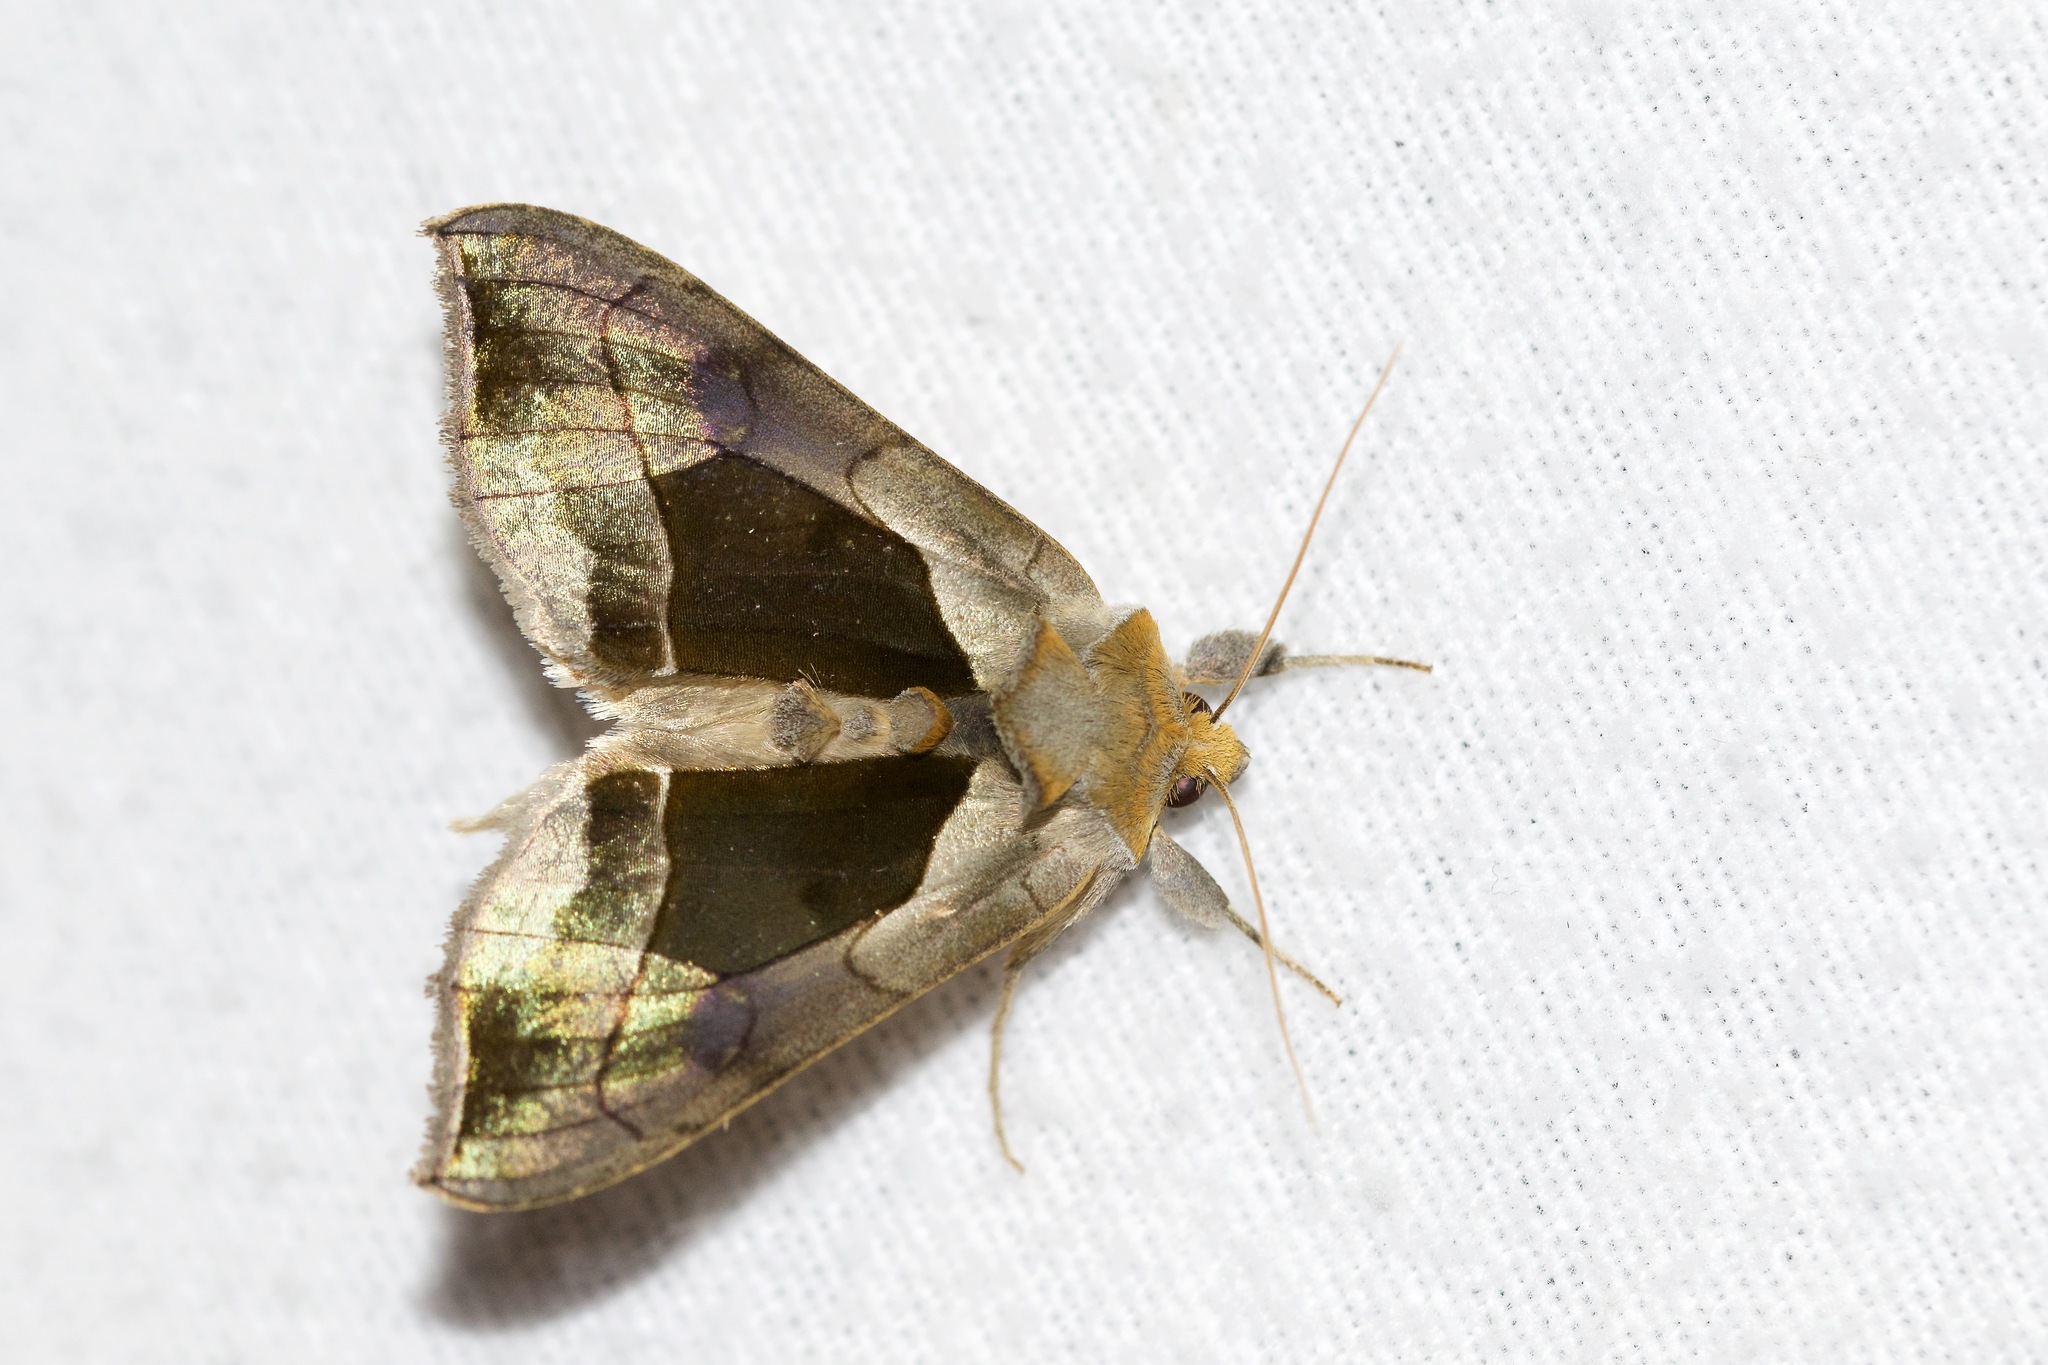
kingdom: Animalia
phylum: Arthropoda
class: Insecta
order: Lepidoptera
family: Noctuidae
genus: Diachrysia
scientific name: Diachrysia balluca
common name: Green-patched looper moth
